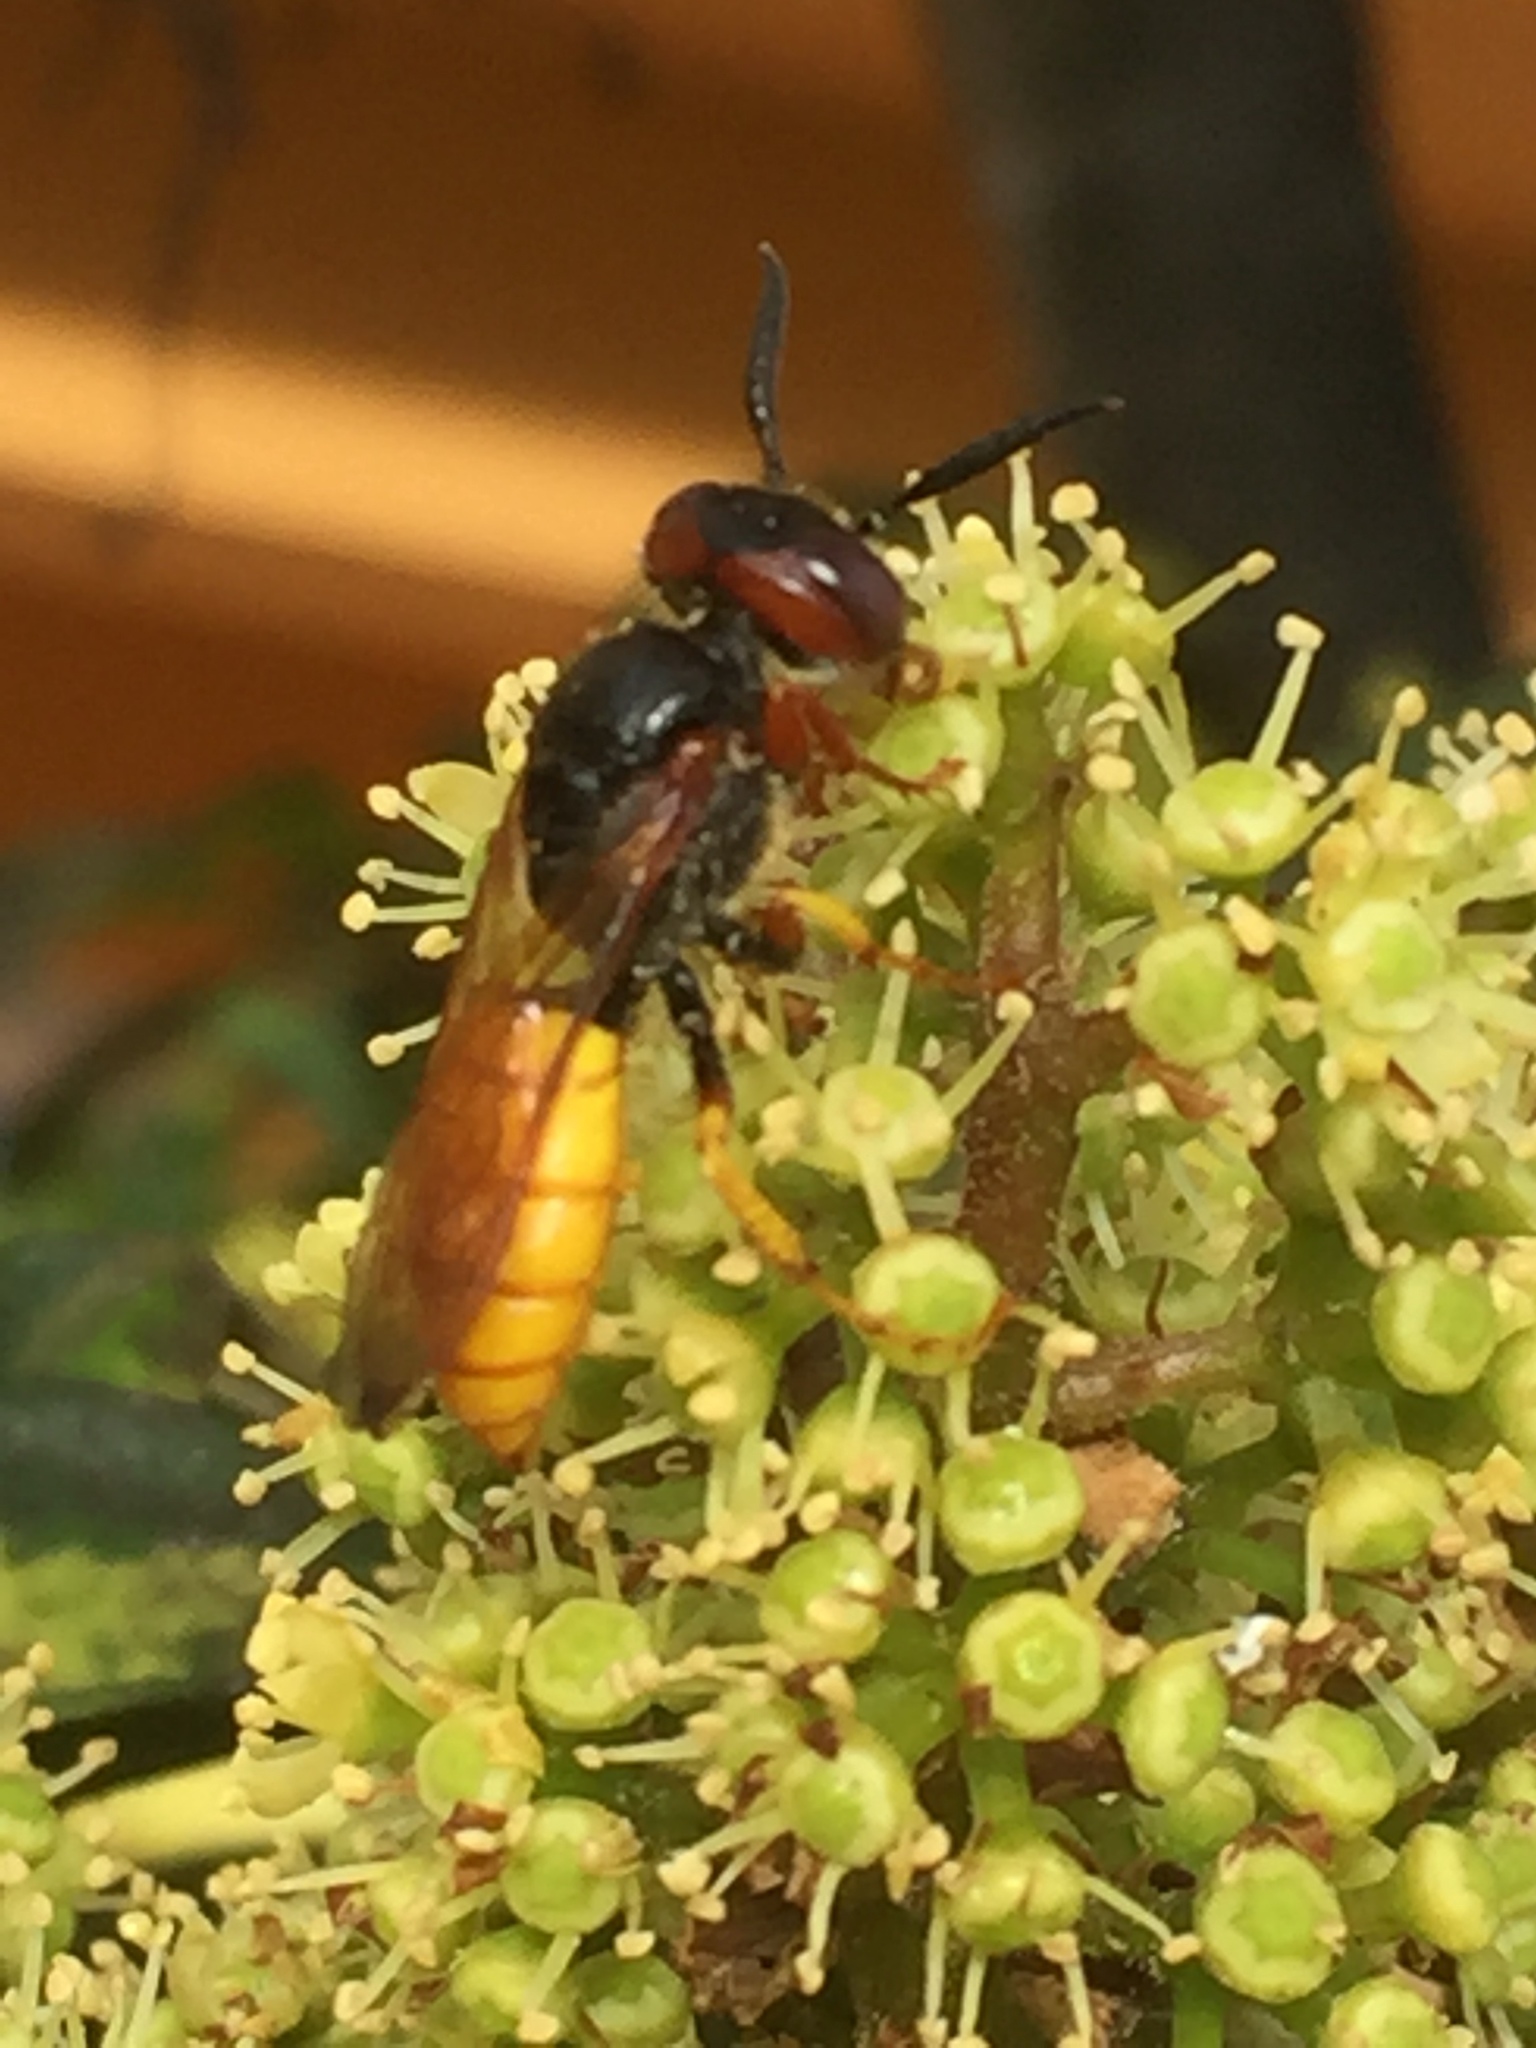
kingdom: Animalia
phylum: Arthropoda
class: Insecta
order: Hymenoptera
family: Crabronidae
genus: Philanthus
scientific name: Philanthus triangulum
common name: Bee wolf
